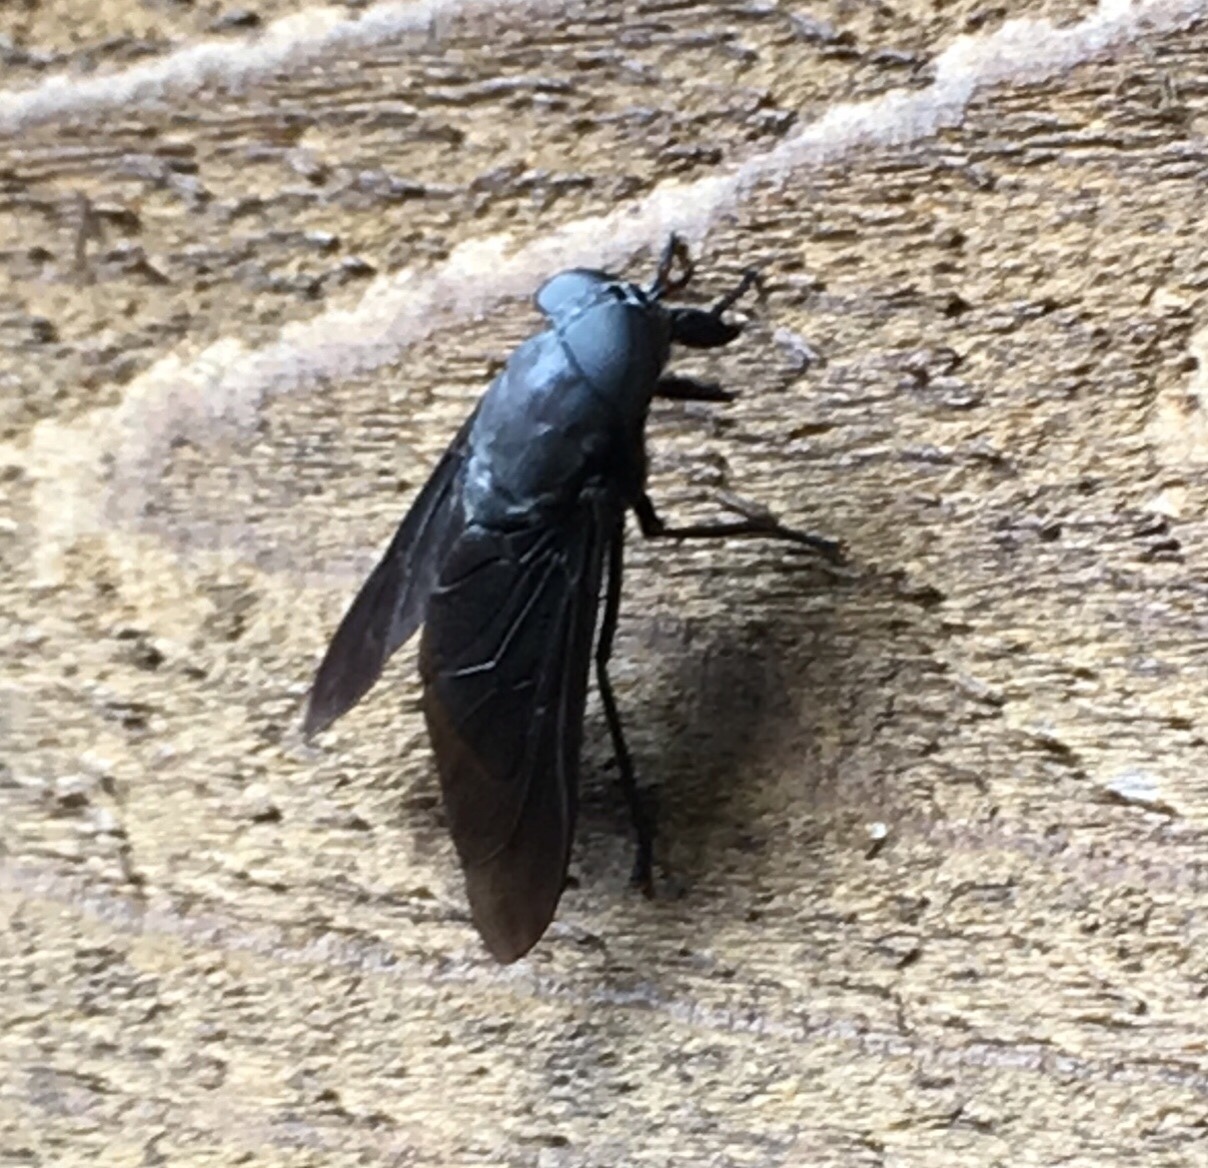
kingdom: Animalia
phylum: Arthropoda
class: Insecta
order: Diptera
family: Tabanidae
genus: Tabanus
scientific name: Tabanus atratus
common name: Black horse fly
